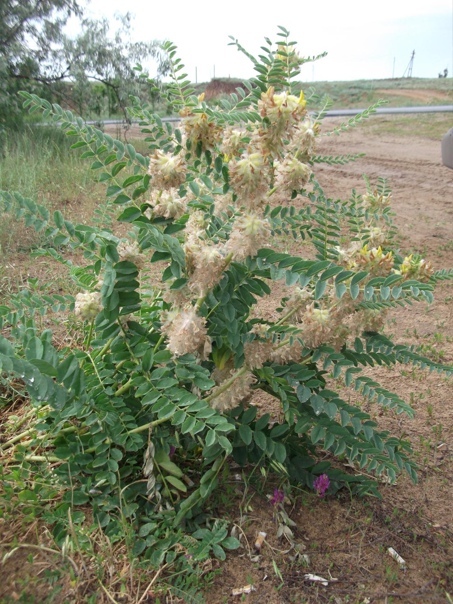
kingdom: Plantae
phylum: Tracheophyta
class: Magnoliopsida
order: Fabales
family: Fabaceae
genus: Astragalus
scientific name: Astragalus vulpinus
